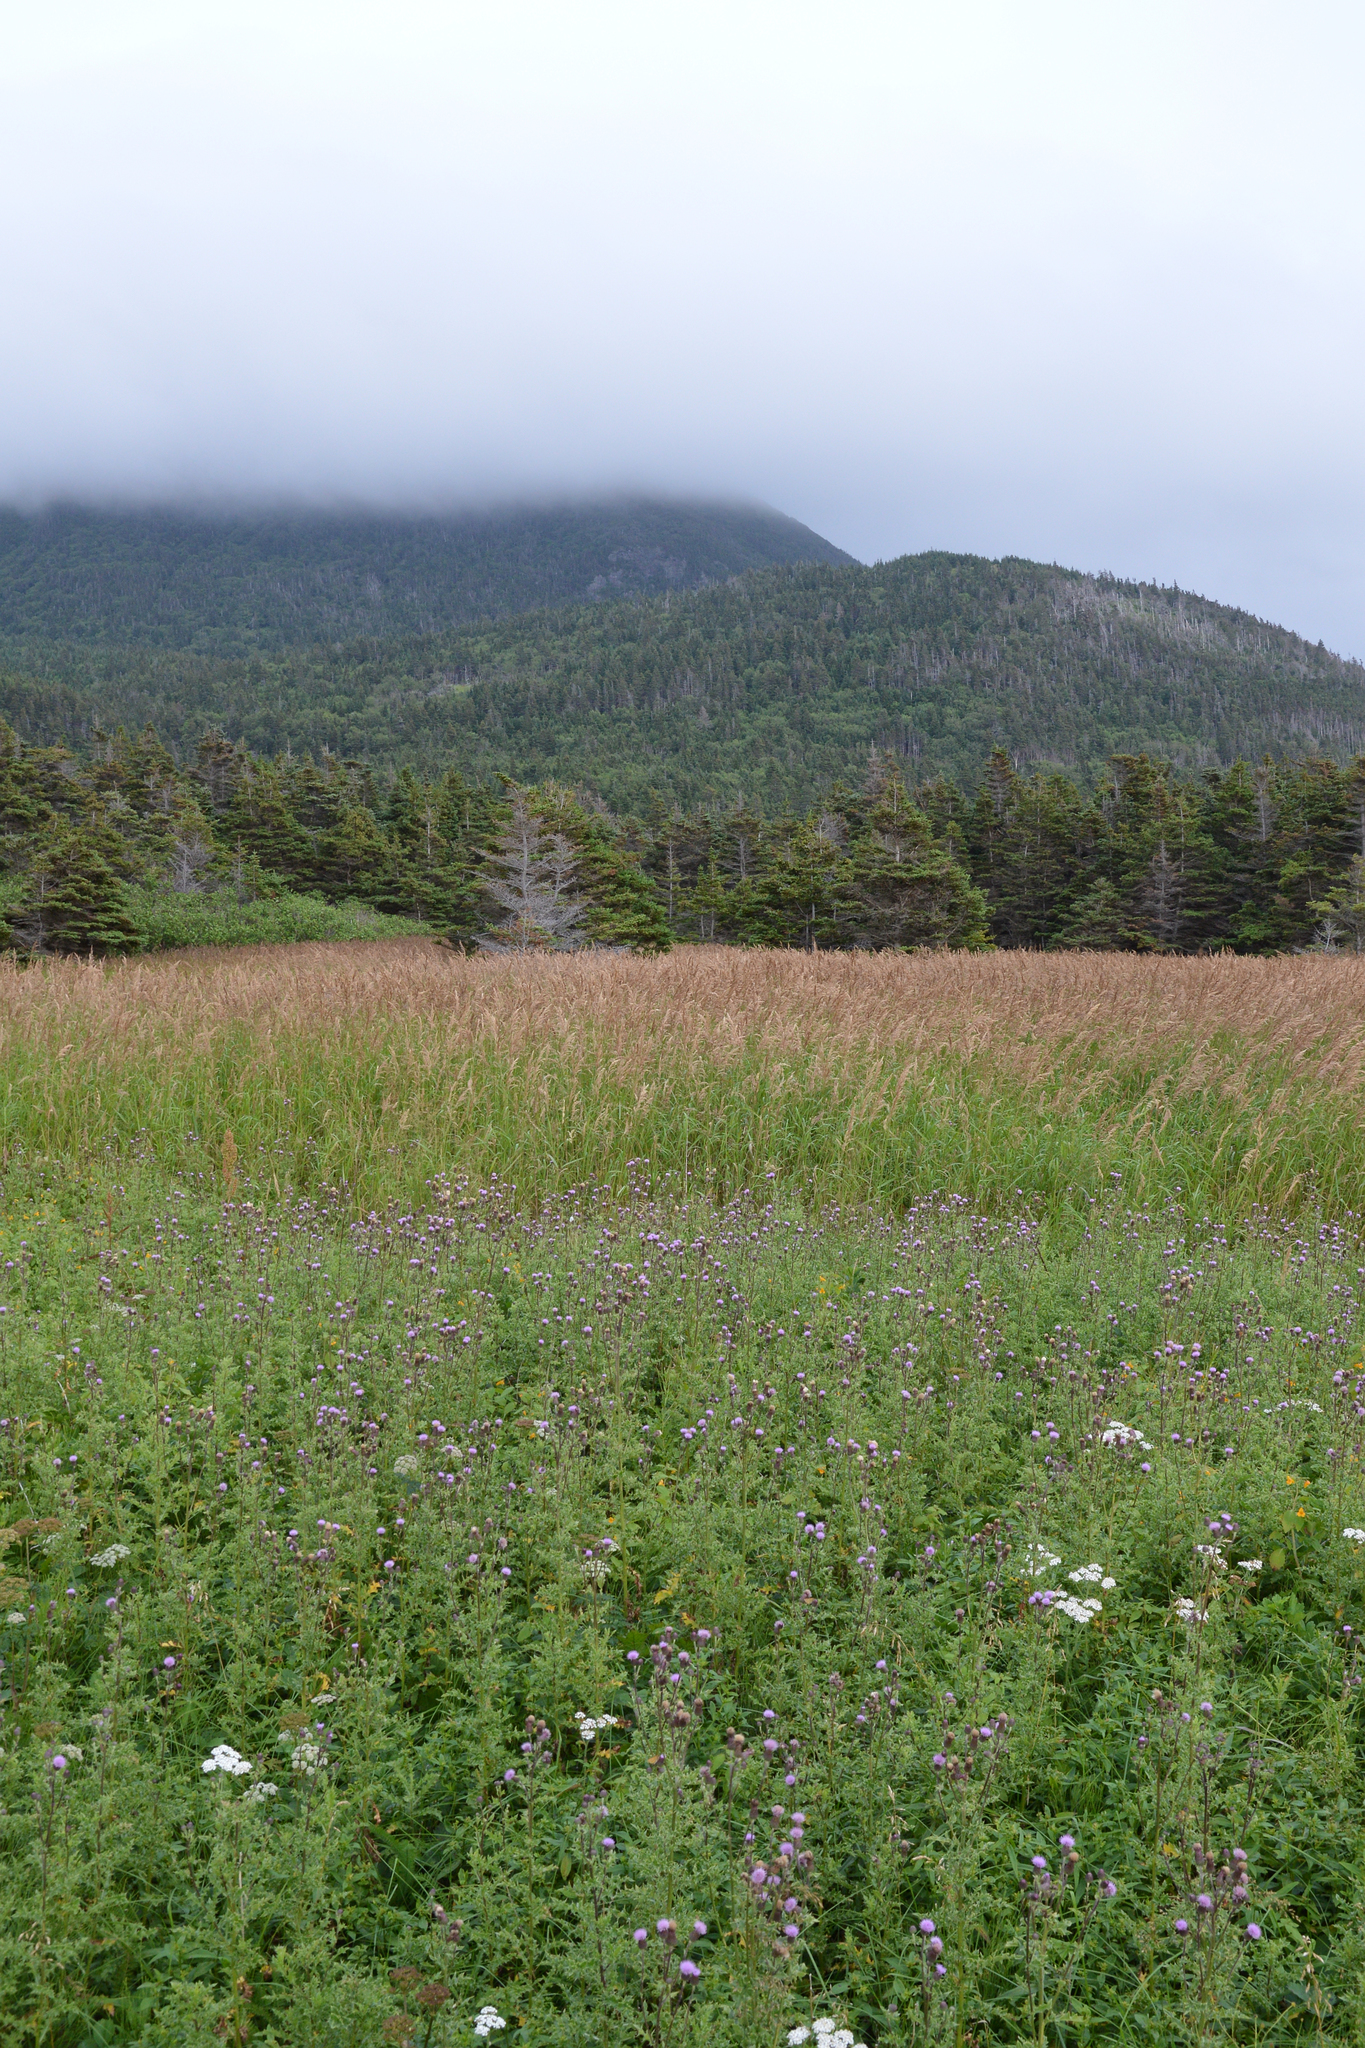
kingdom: Plantae
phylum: Tracheophyta
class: Liliopsida
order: Poales
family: Poaceae
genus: Calamagrostis
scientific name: Calamagrostis canadensis
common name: Canada bluejoint
